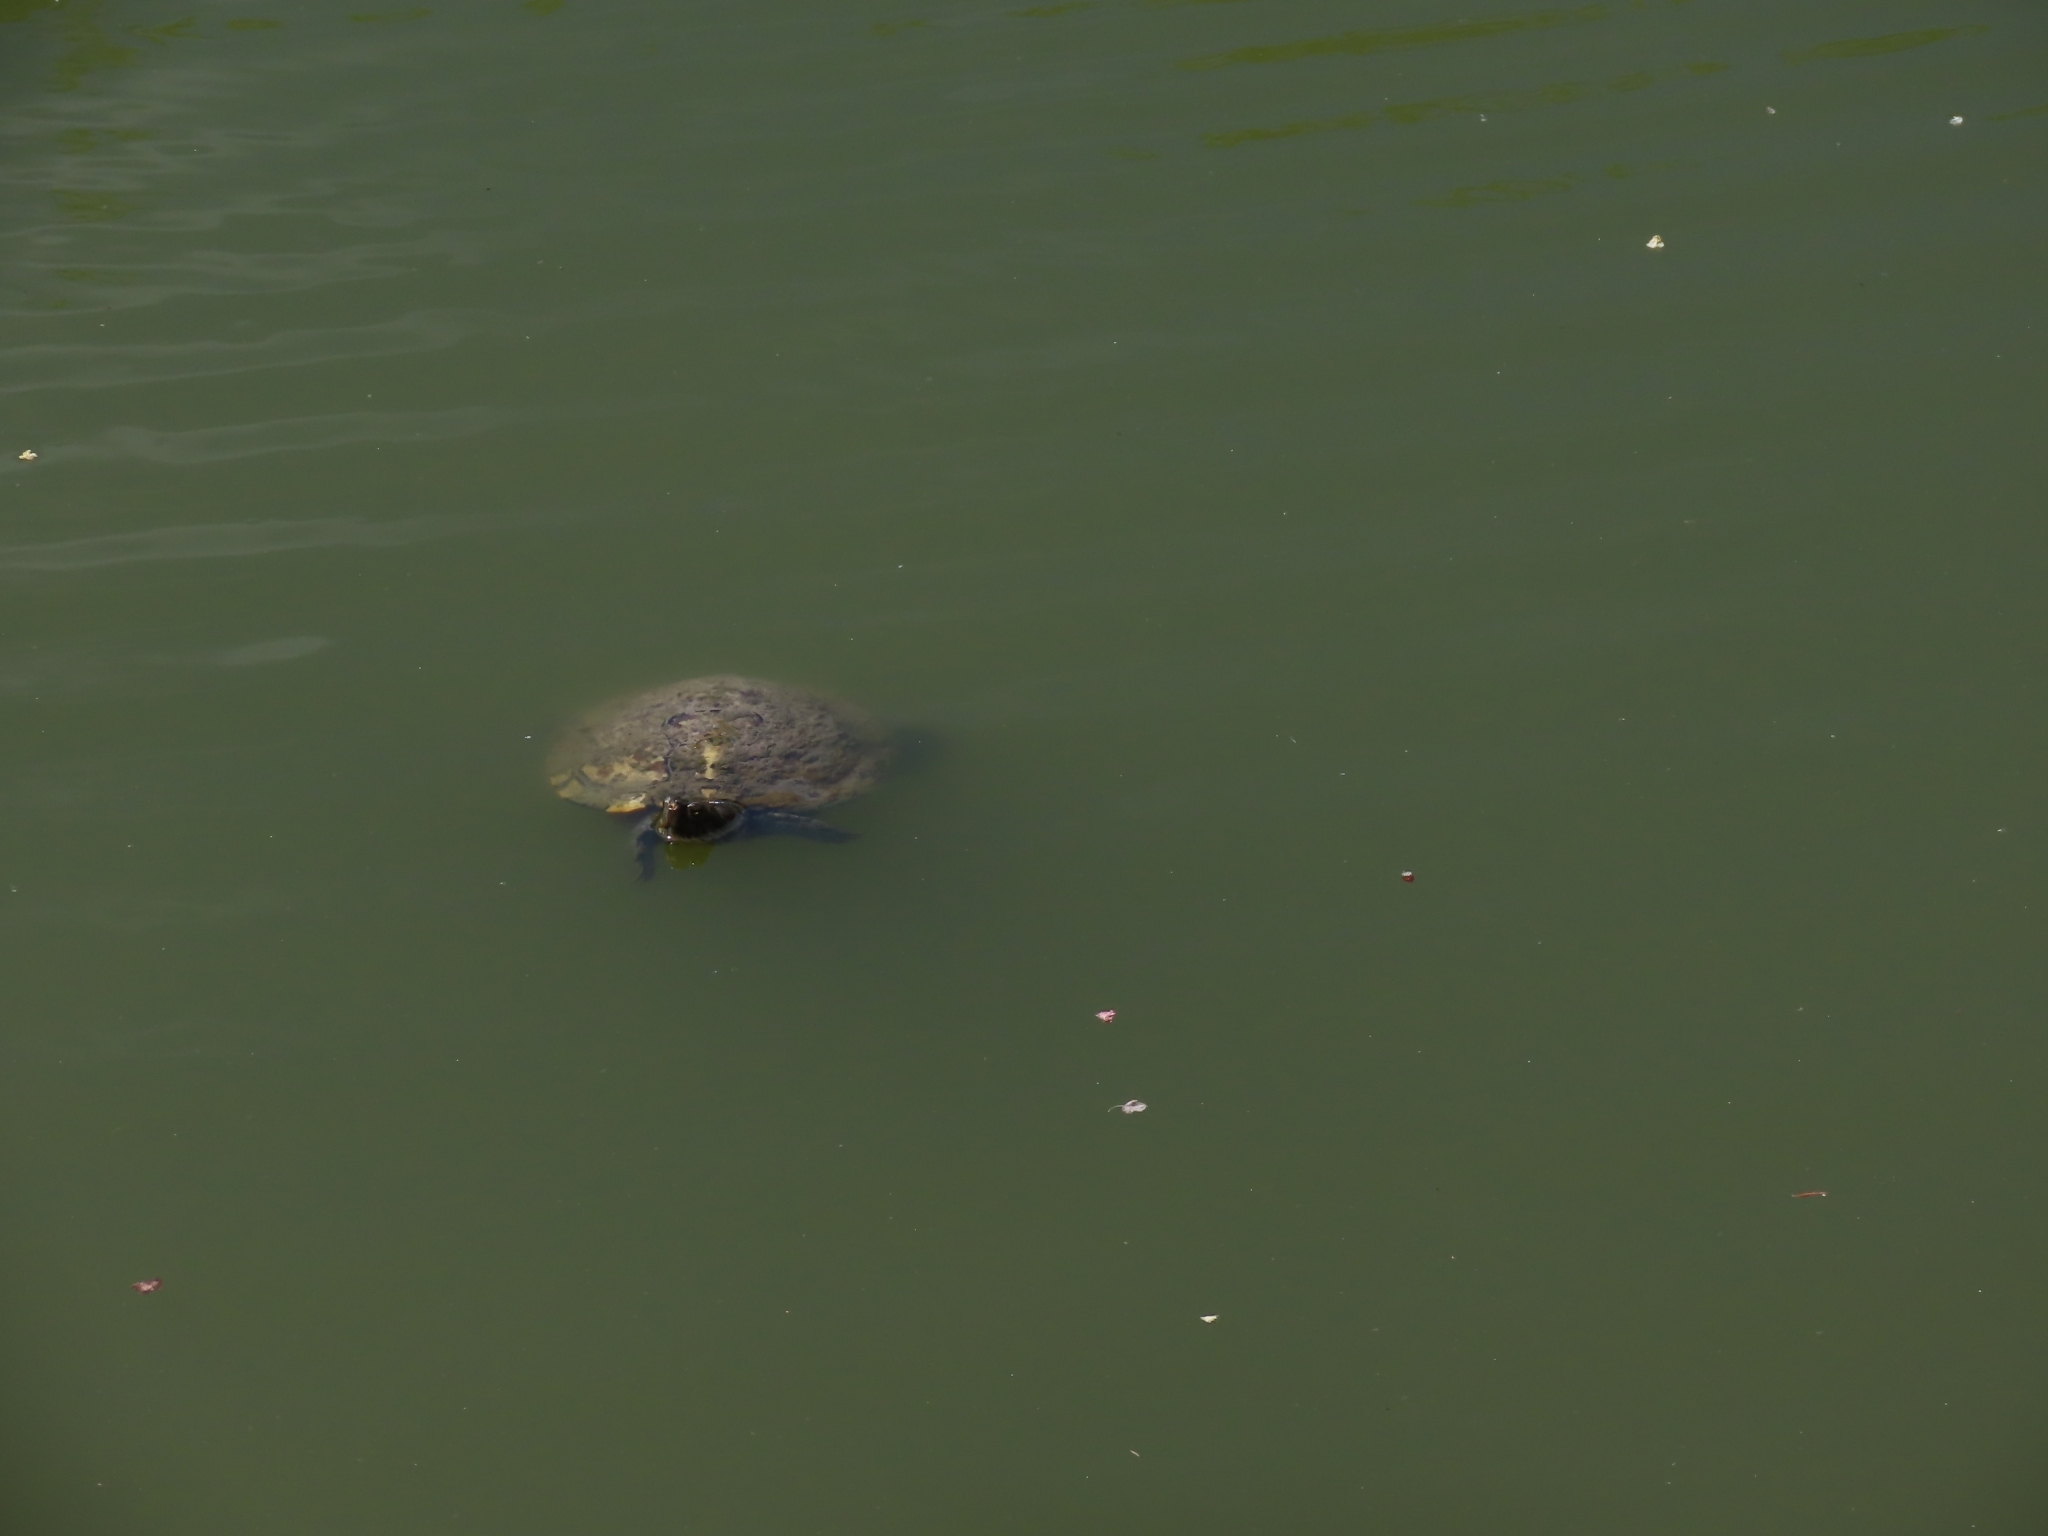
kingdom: Animalia
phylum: Chordata
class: Testudines
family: Emydidae
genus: Trachemys
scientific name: Trachemys scripta
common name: Slider
